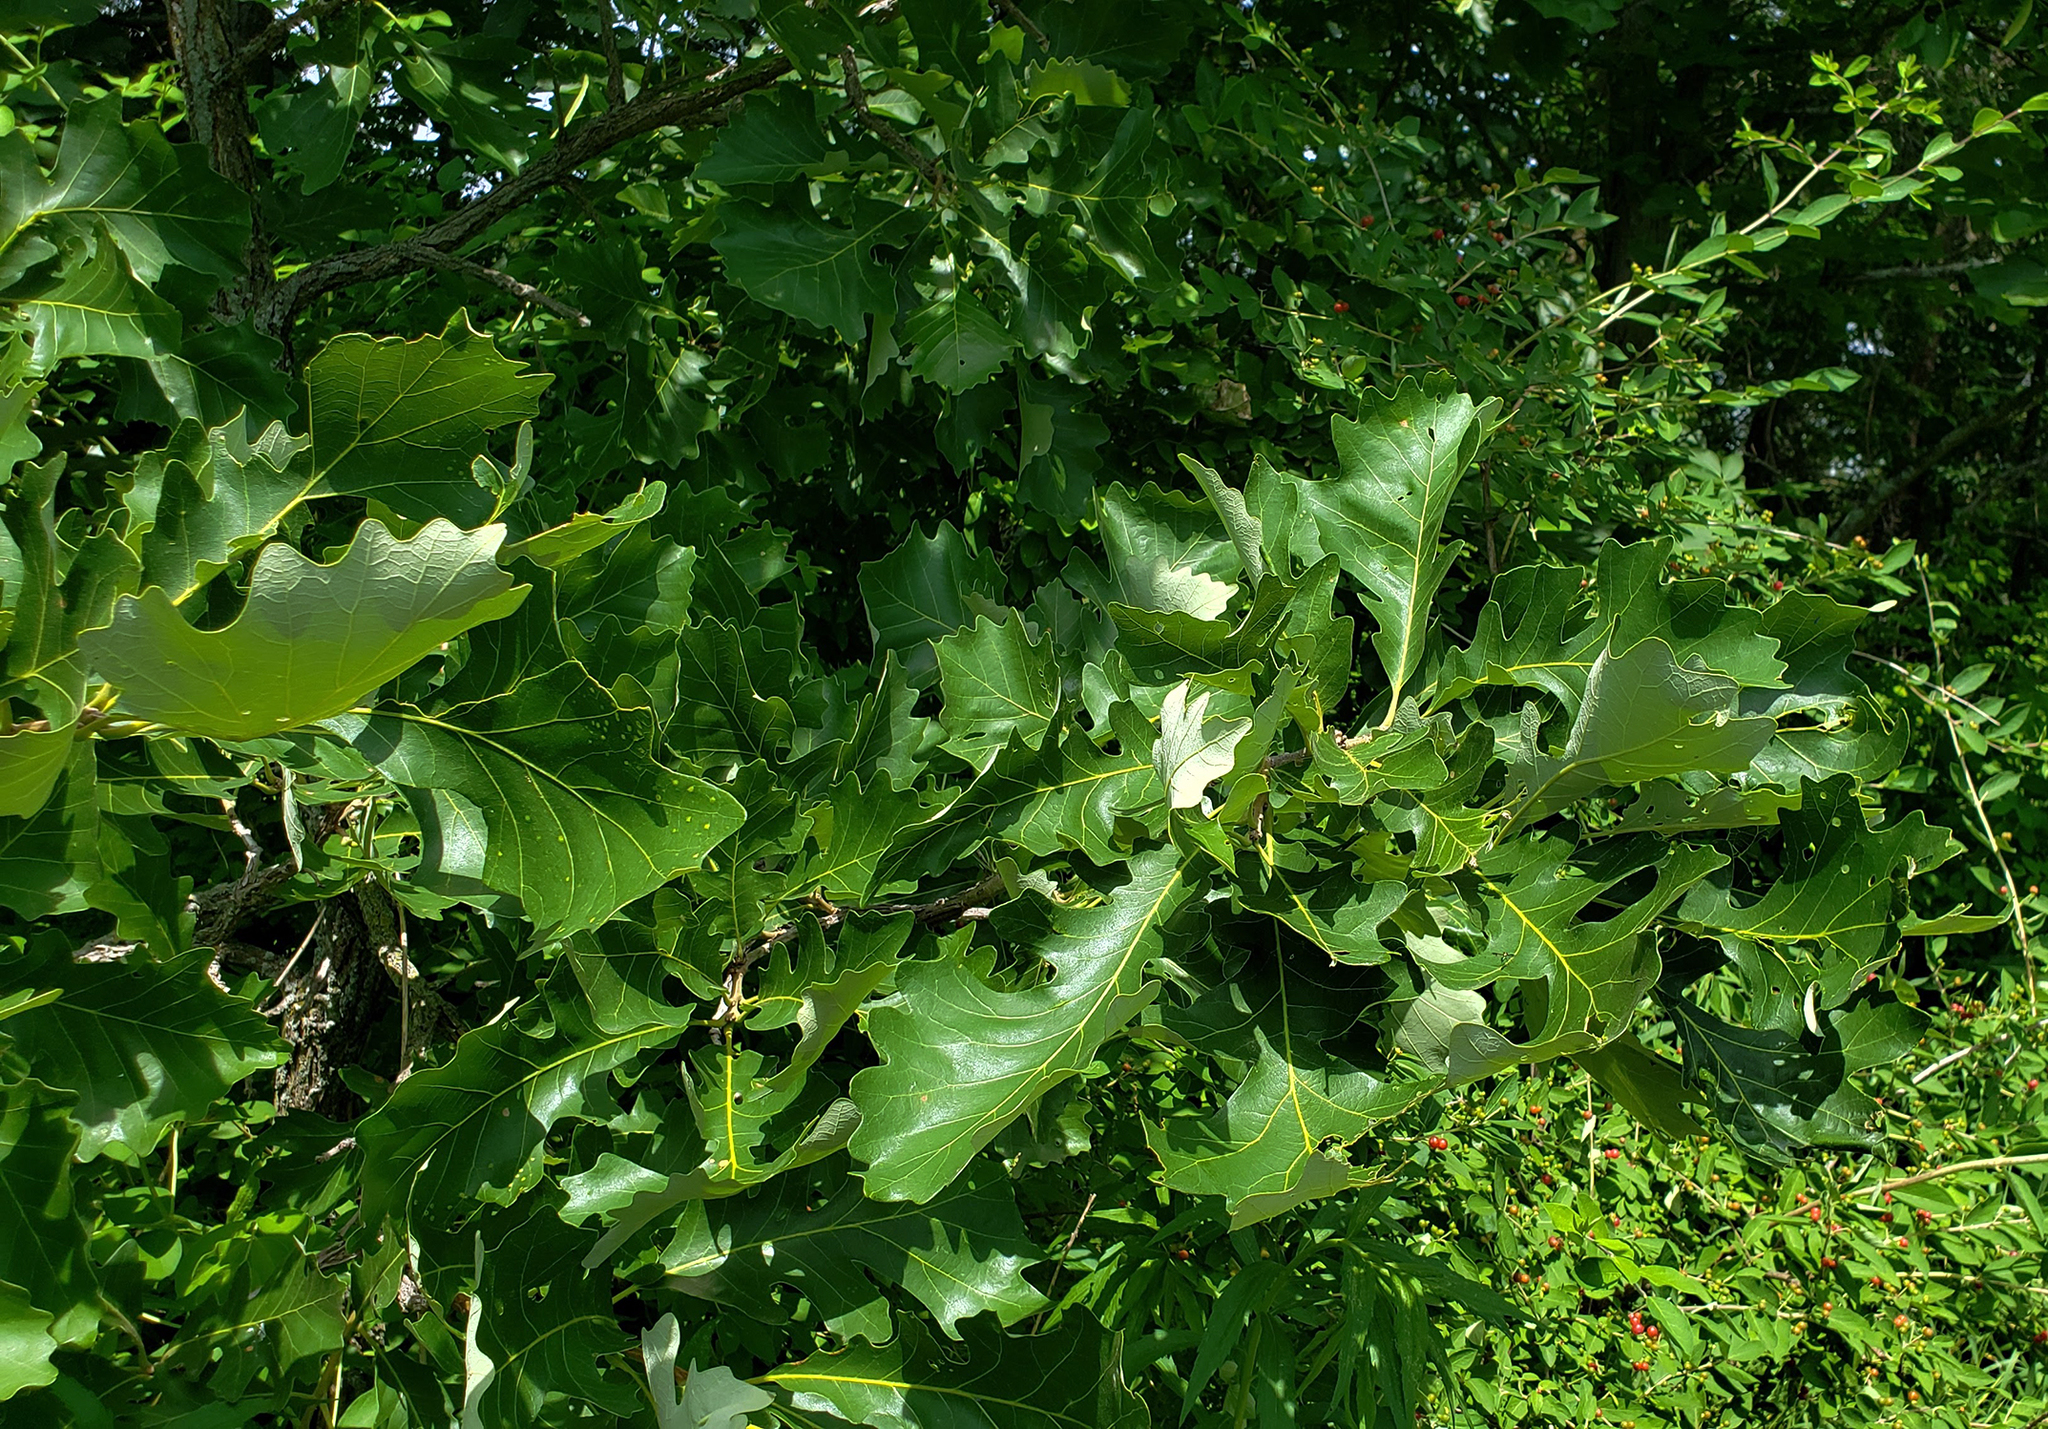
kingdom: Plantae
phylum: Tracheophyta
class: Magnoliopsida
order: Fagales
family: Fagaceae
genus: Quercus
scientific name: Quercus macrocarpa
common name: Bur oak
